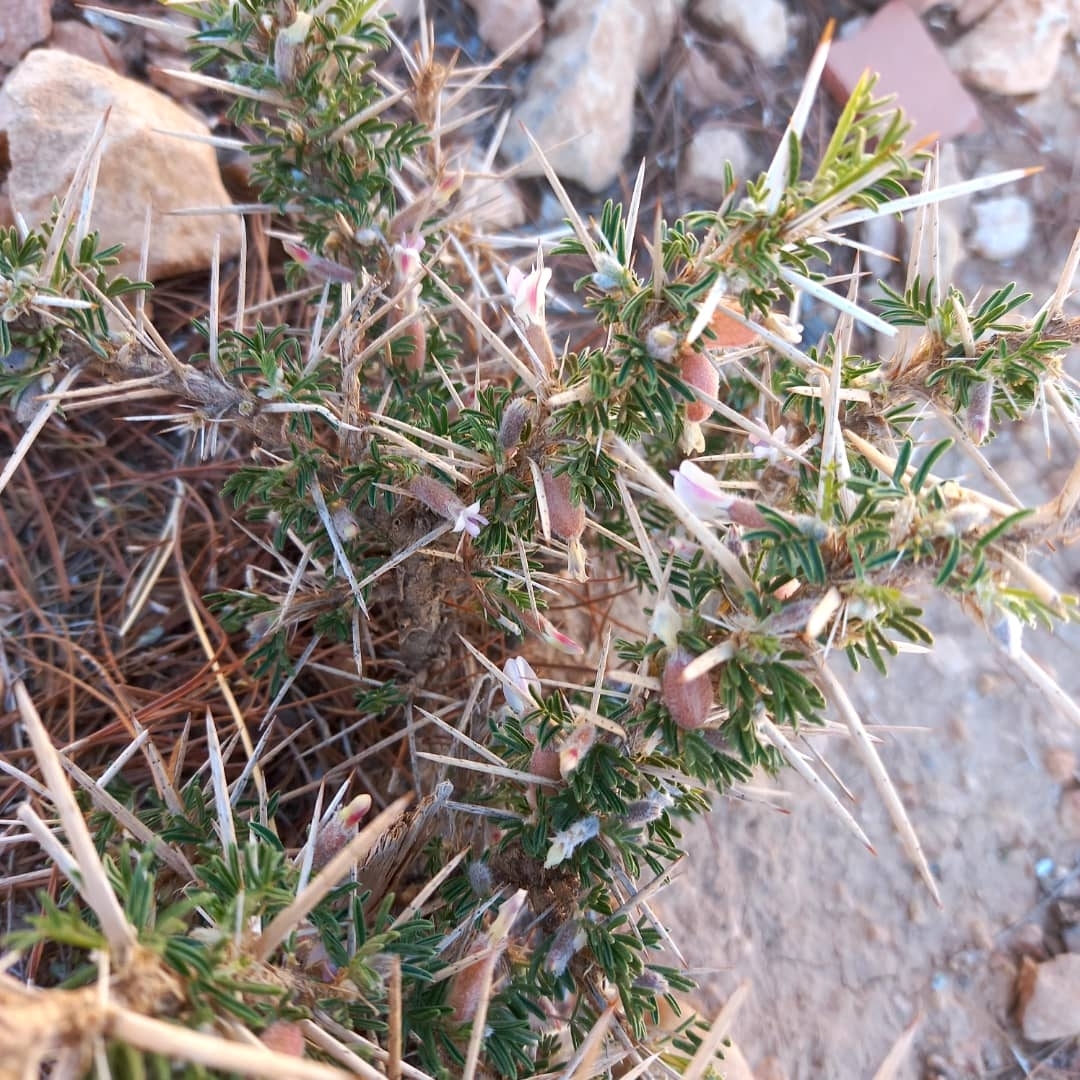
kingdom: Plantae
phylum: Tracheophyta
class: Magnoliopsida
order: Fabales
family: Fabaceae
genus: Astragalus
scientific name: Astragalus armatus
